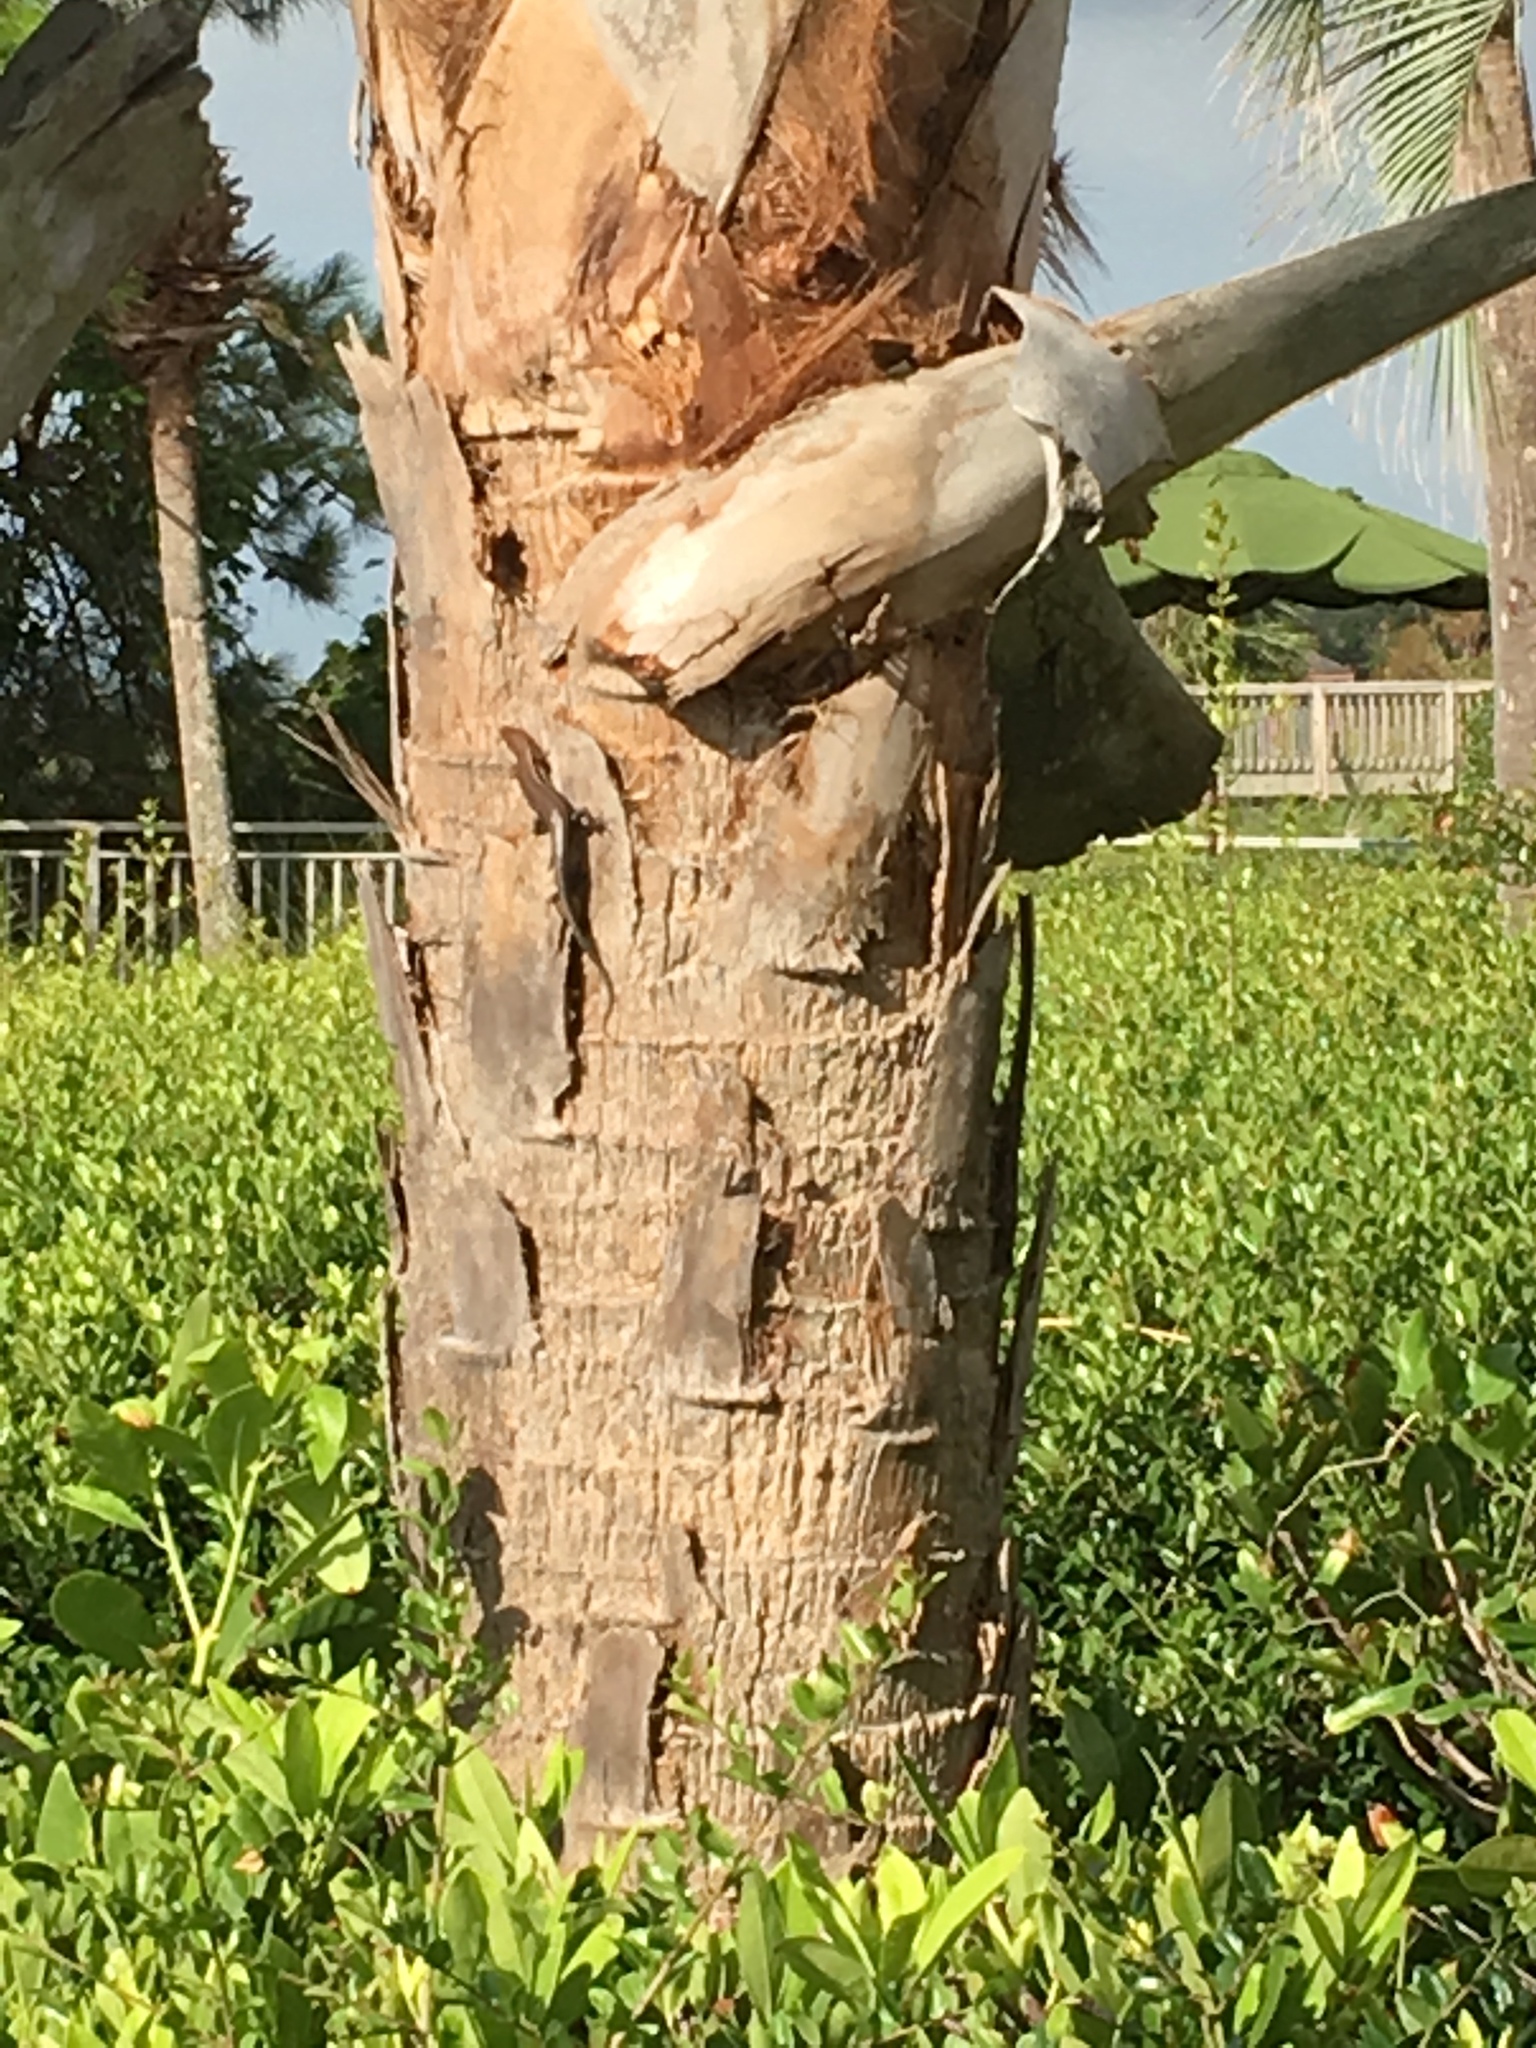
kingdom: Animalia
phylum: Chordata
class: Squamata
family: Scincidae
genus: Plestiodon
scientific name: Plestiodon
